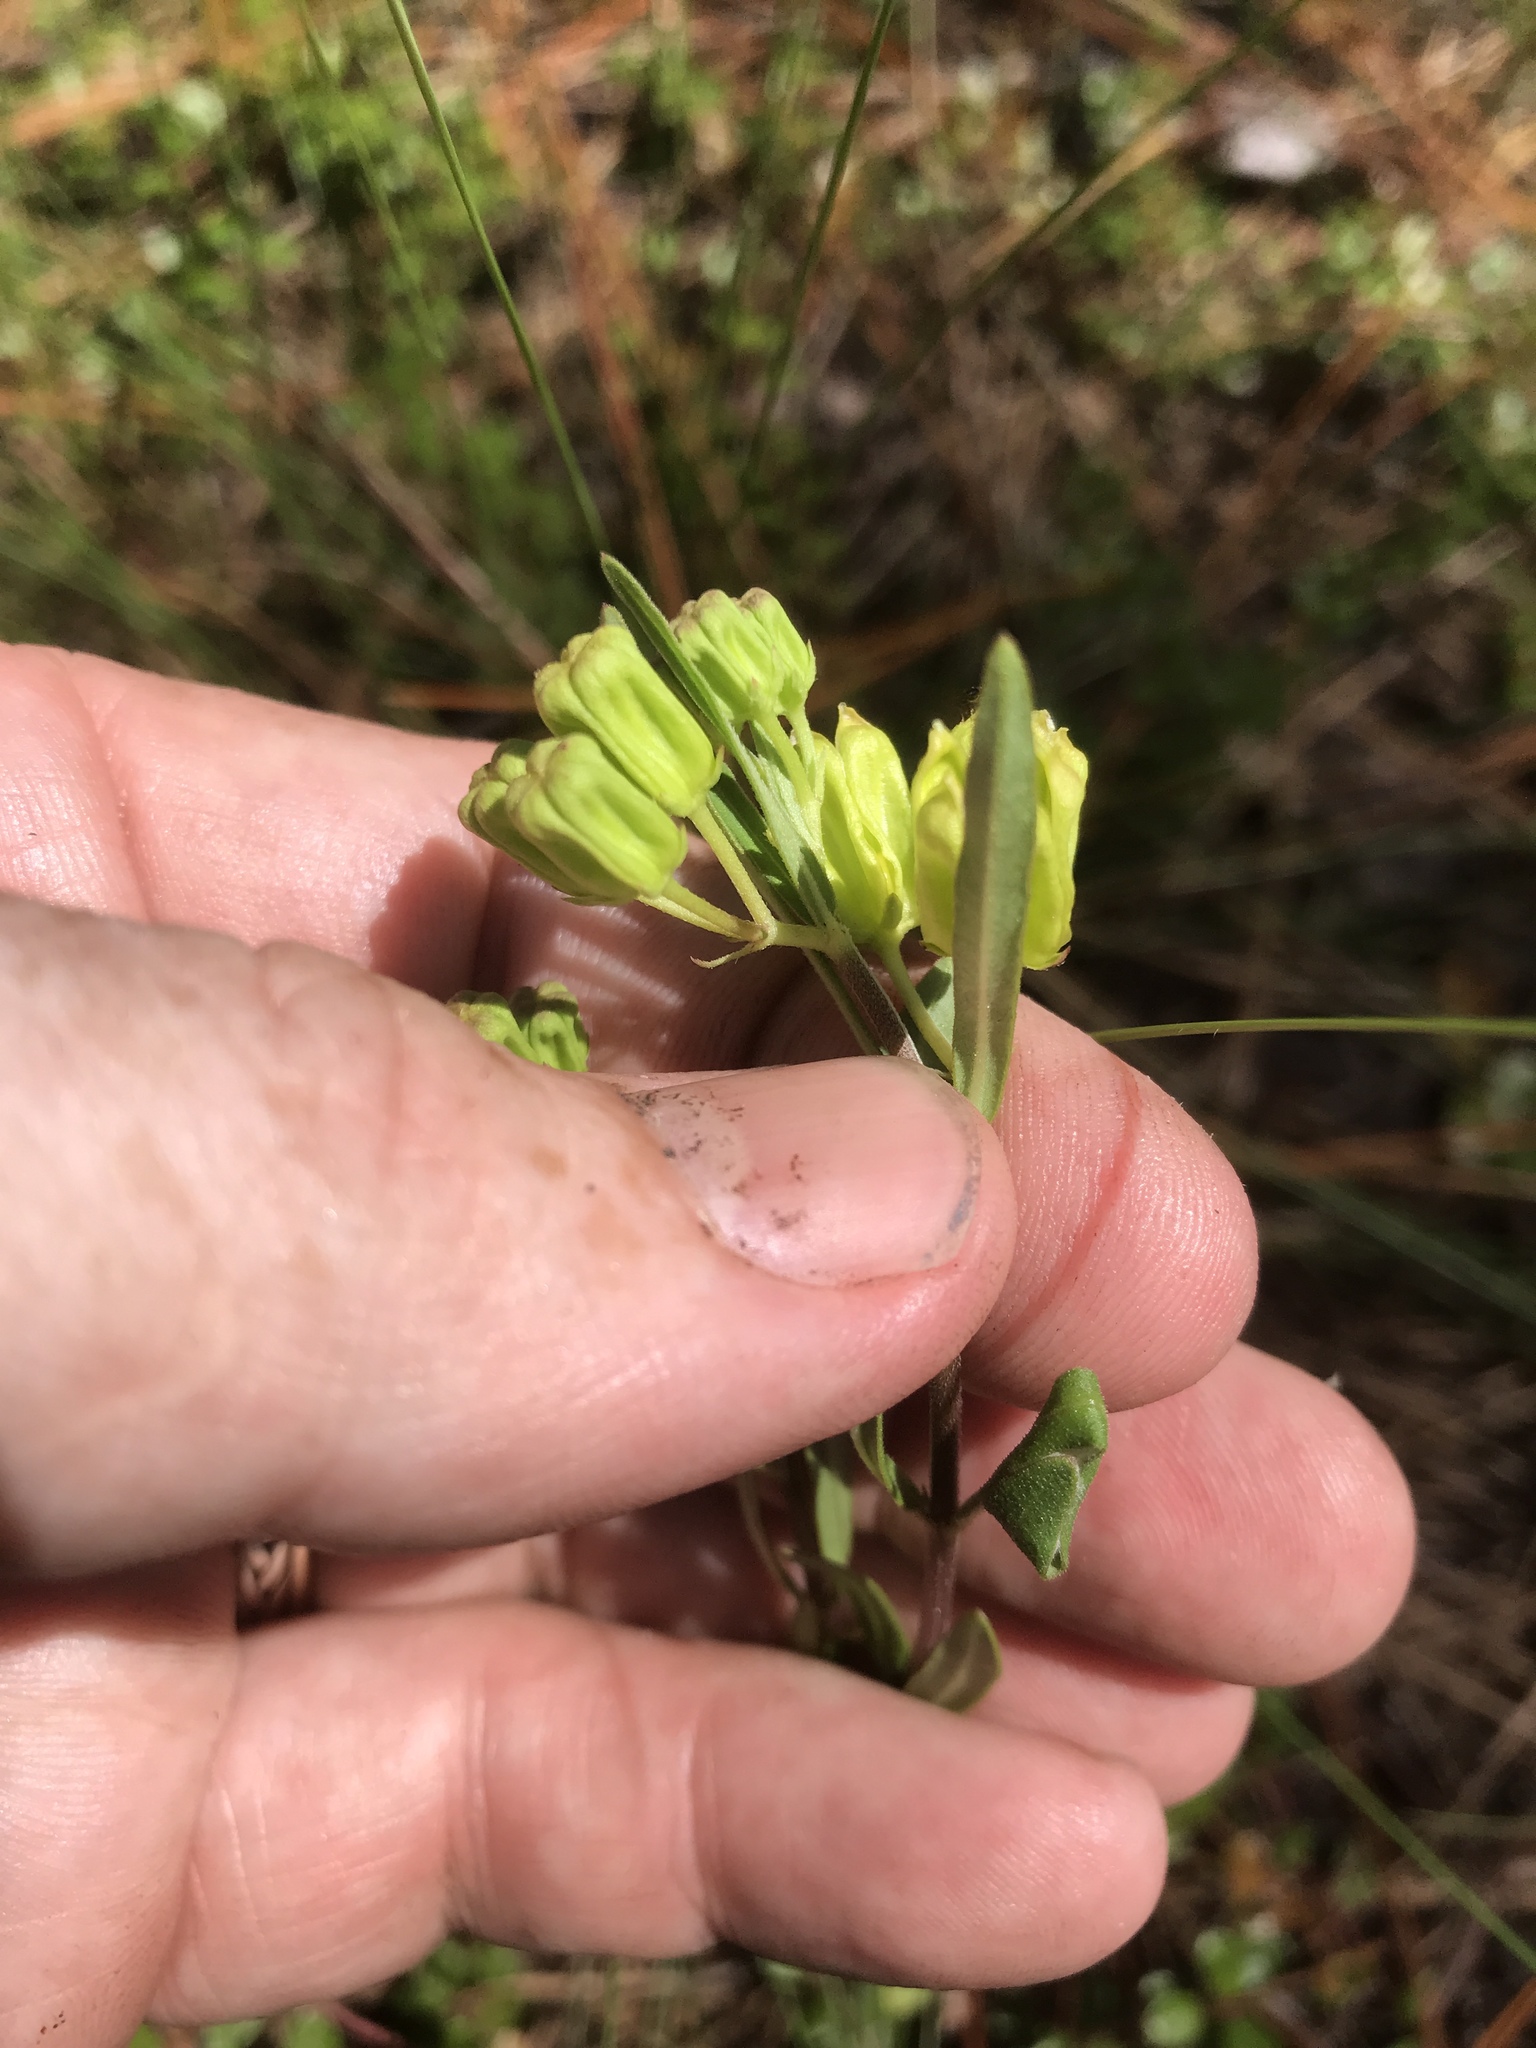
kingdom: Plantae
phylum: Tracheophyta
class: Magnoliopsida
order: Gentianales
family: Apocynaceae
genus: Asclepias
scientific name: Asclepias pedicellata
